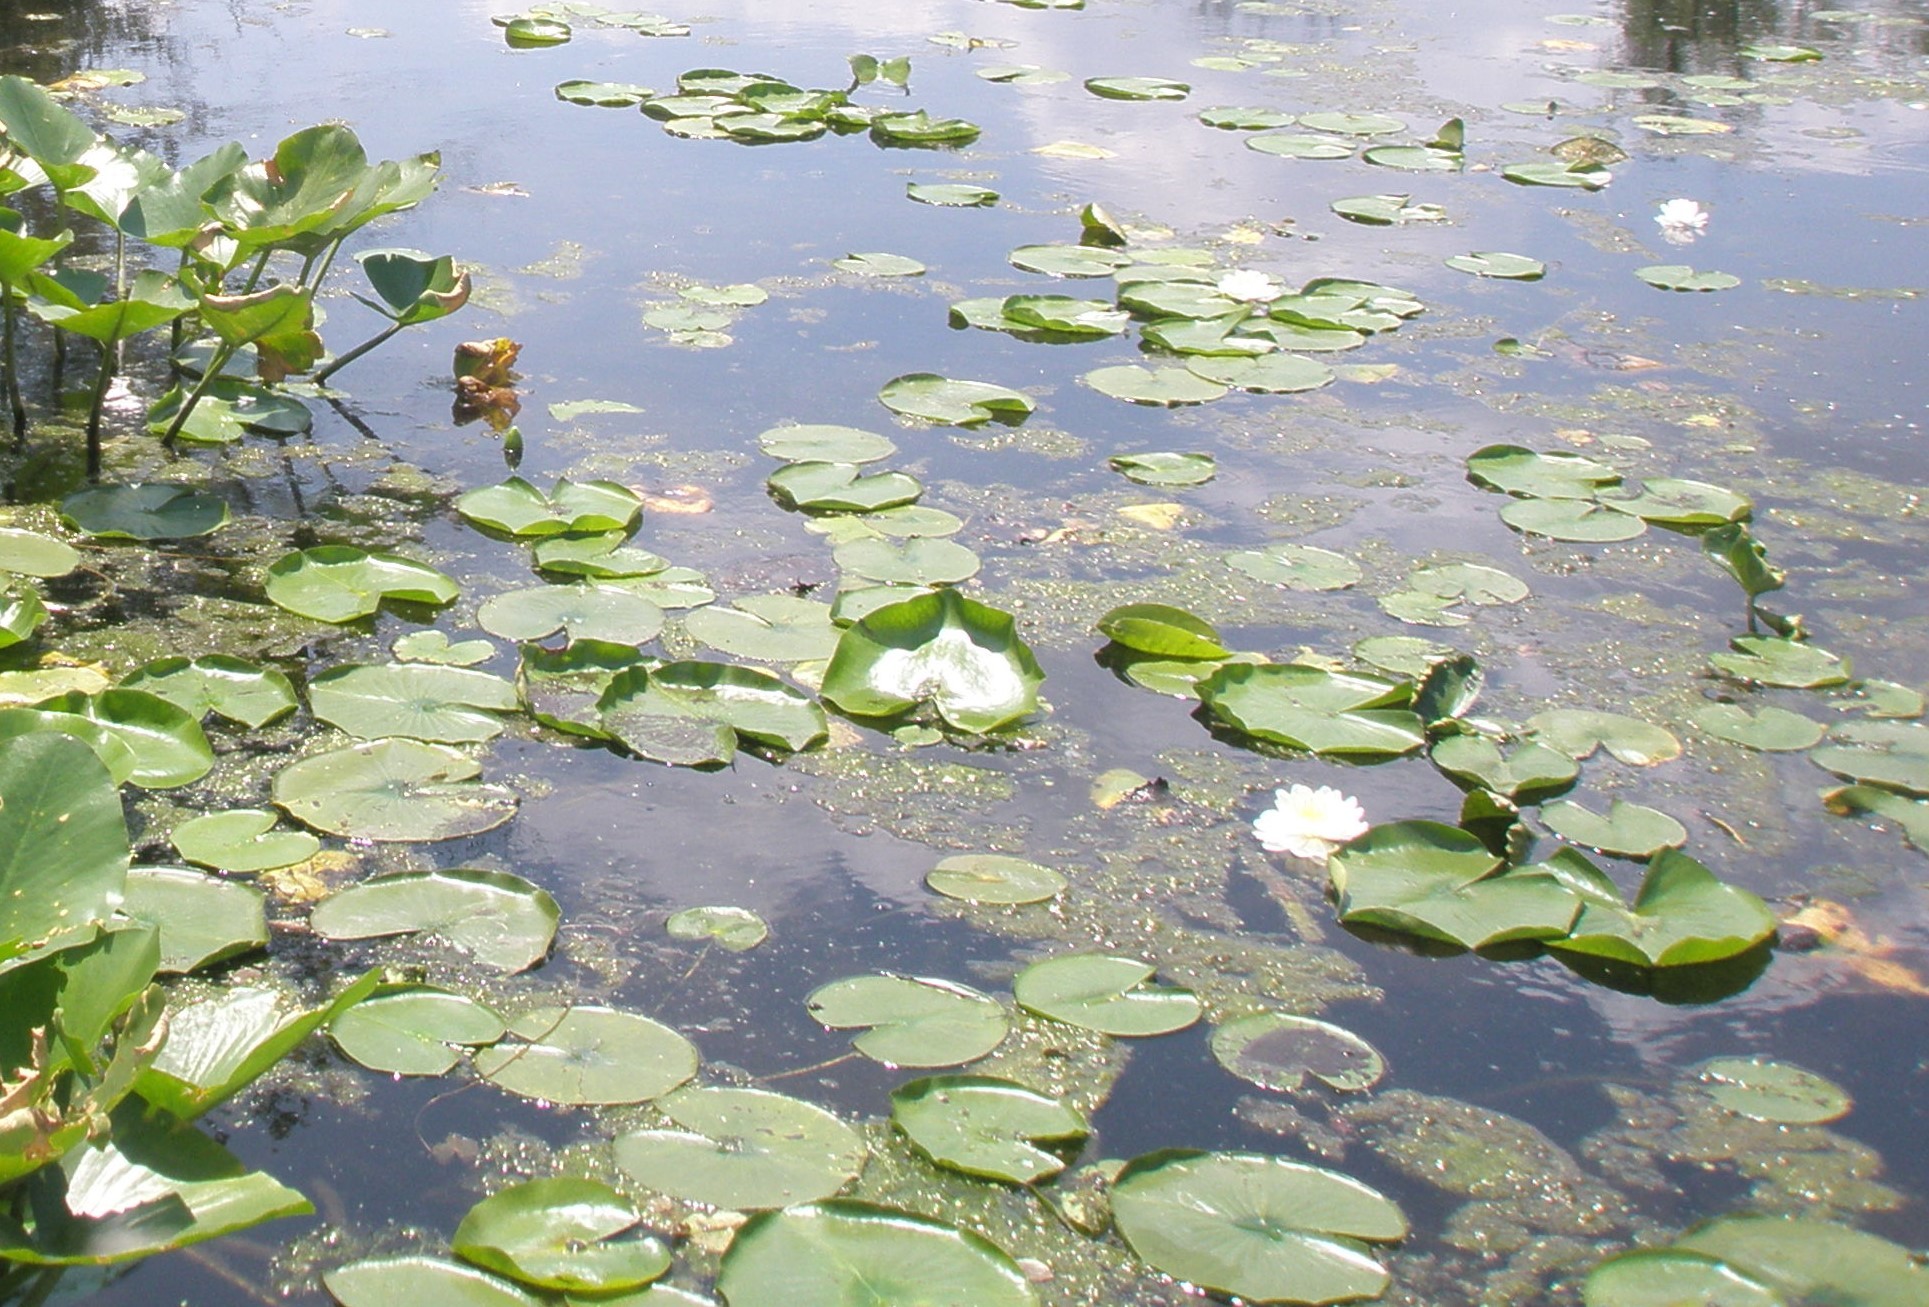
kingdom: Plantae
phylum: Tracheophyta
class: Magnoliopsida
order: Nymphaeales
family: Nymphaeaceae
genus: Nymphaea
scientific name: Nymphaea odorata
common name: Fragrant water-lily
